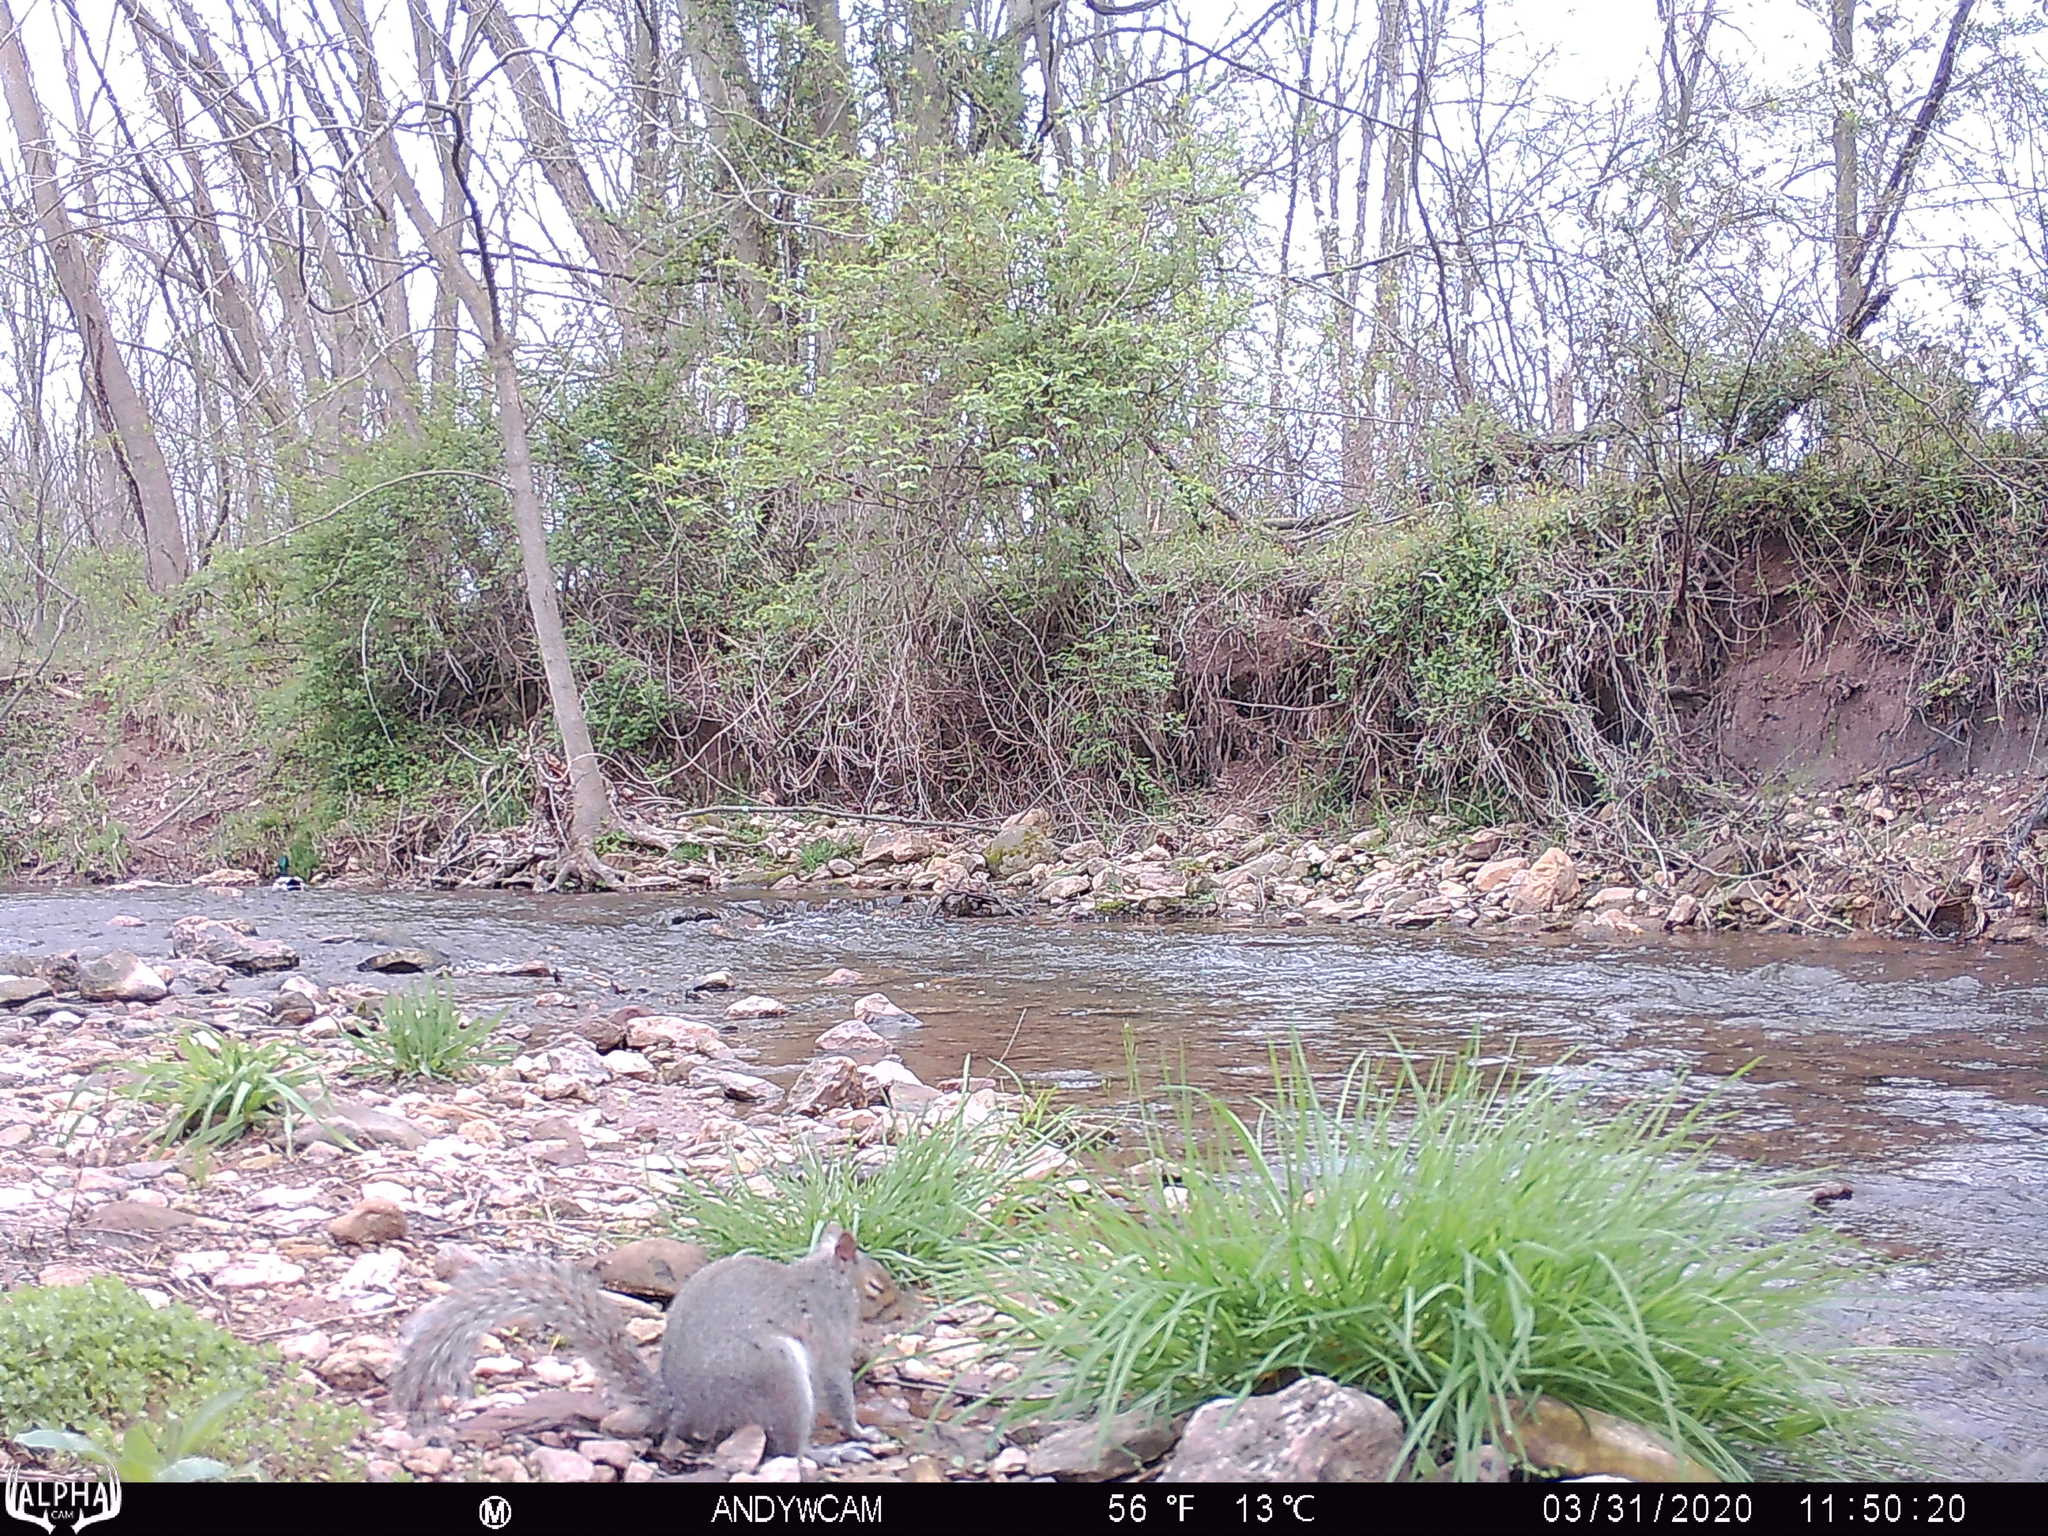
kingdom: Animalia
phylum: Chordata
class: Mammalia
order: Rodentia
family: Sciuridae
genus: Sciurus
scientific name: Sciurus carolinensis
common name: Eastern gray squirrel
